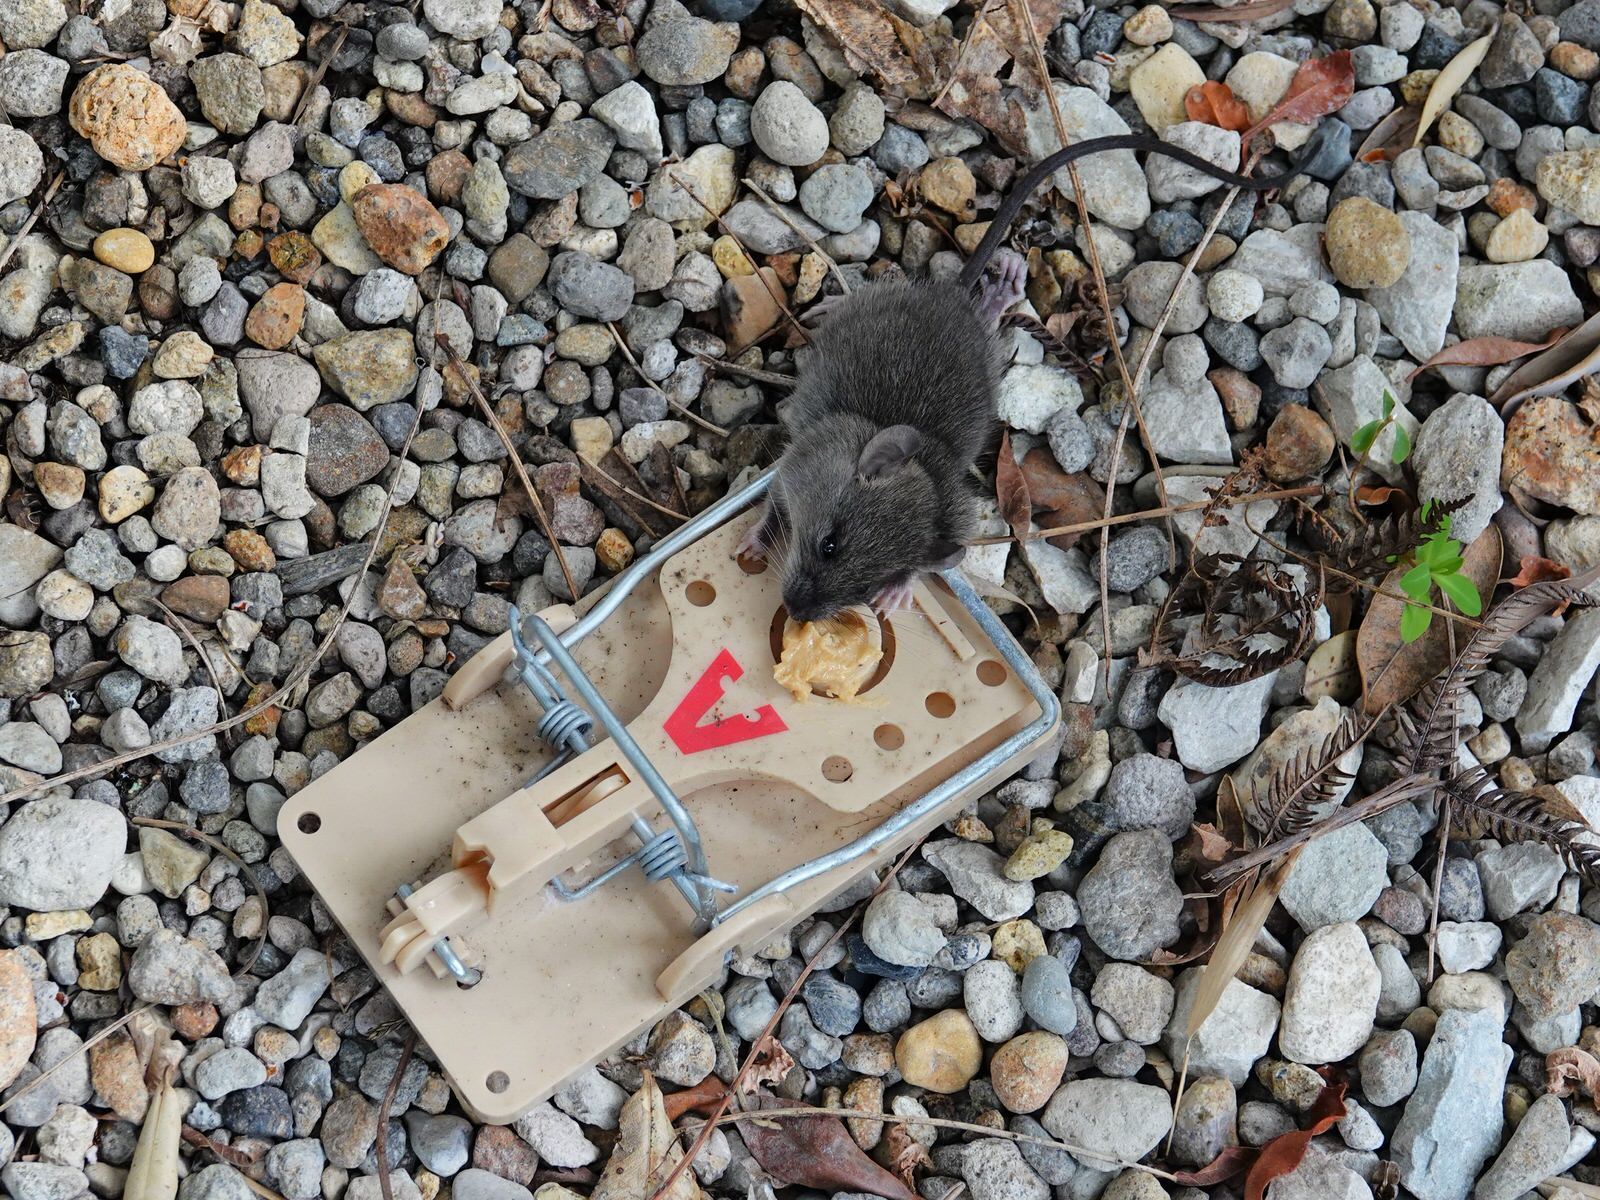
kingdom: Animalia
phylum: Chordata
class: Mammalia
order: Rodentia
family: Muridae
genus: Rattus
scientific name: Rattus rattus
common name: Black rat
